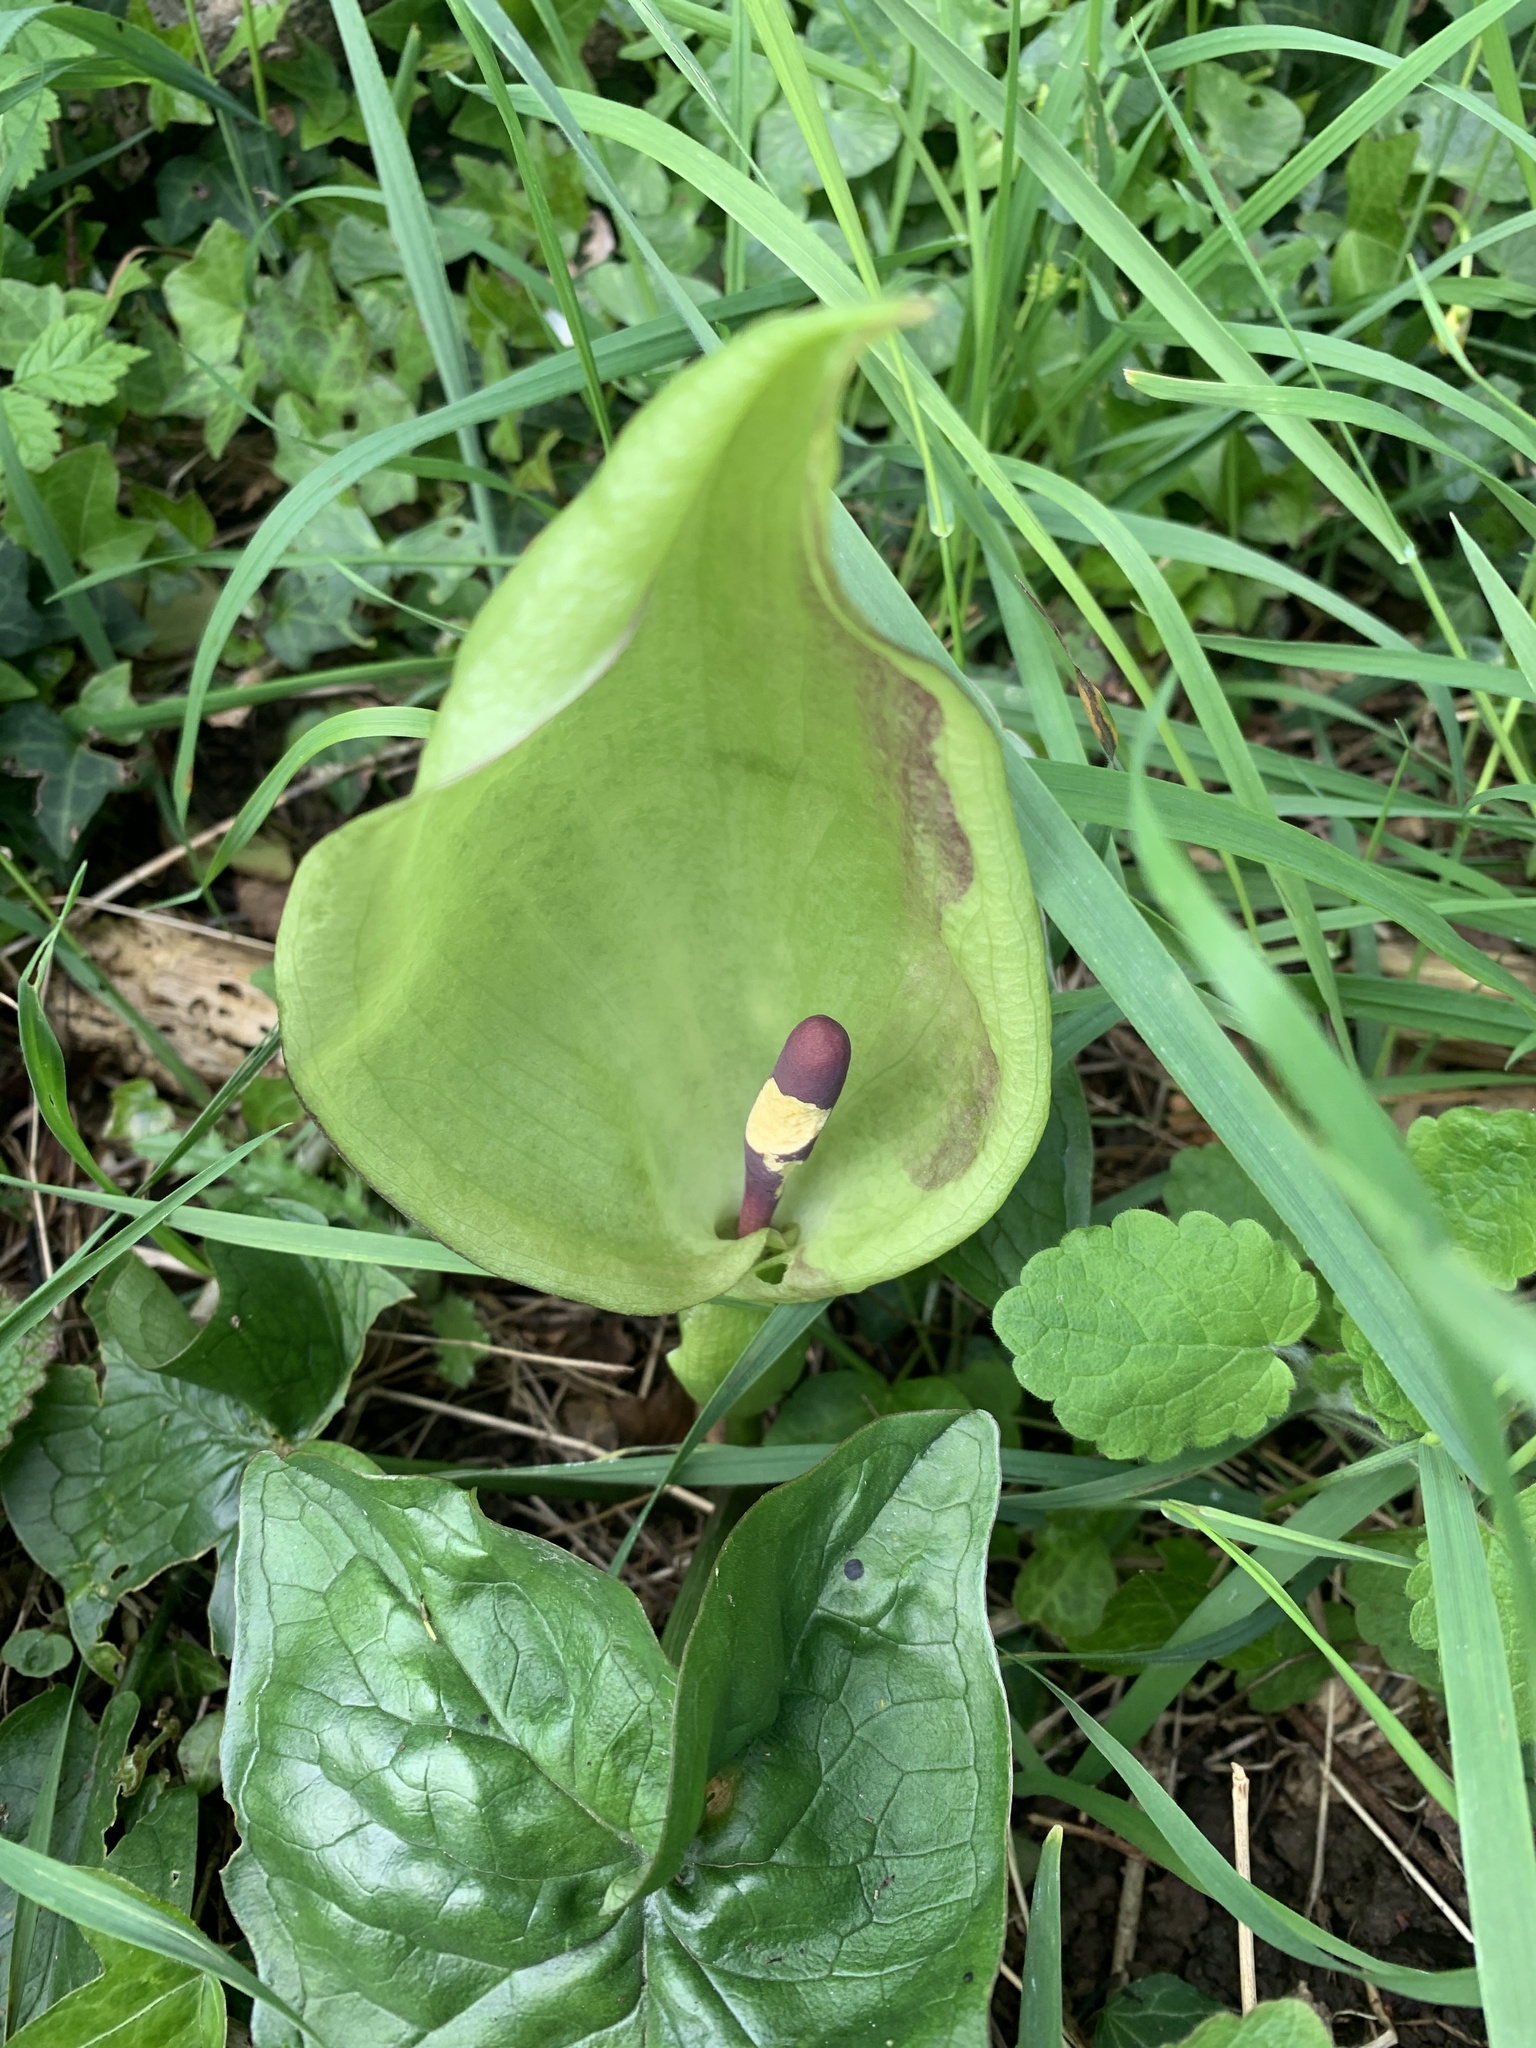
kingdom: Plantae
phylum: Tracheophyta
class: Liliopsida
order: Alismatales
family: Araceae
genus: Arum
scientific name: Arum maculatum
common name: Lords-and-ladies
